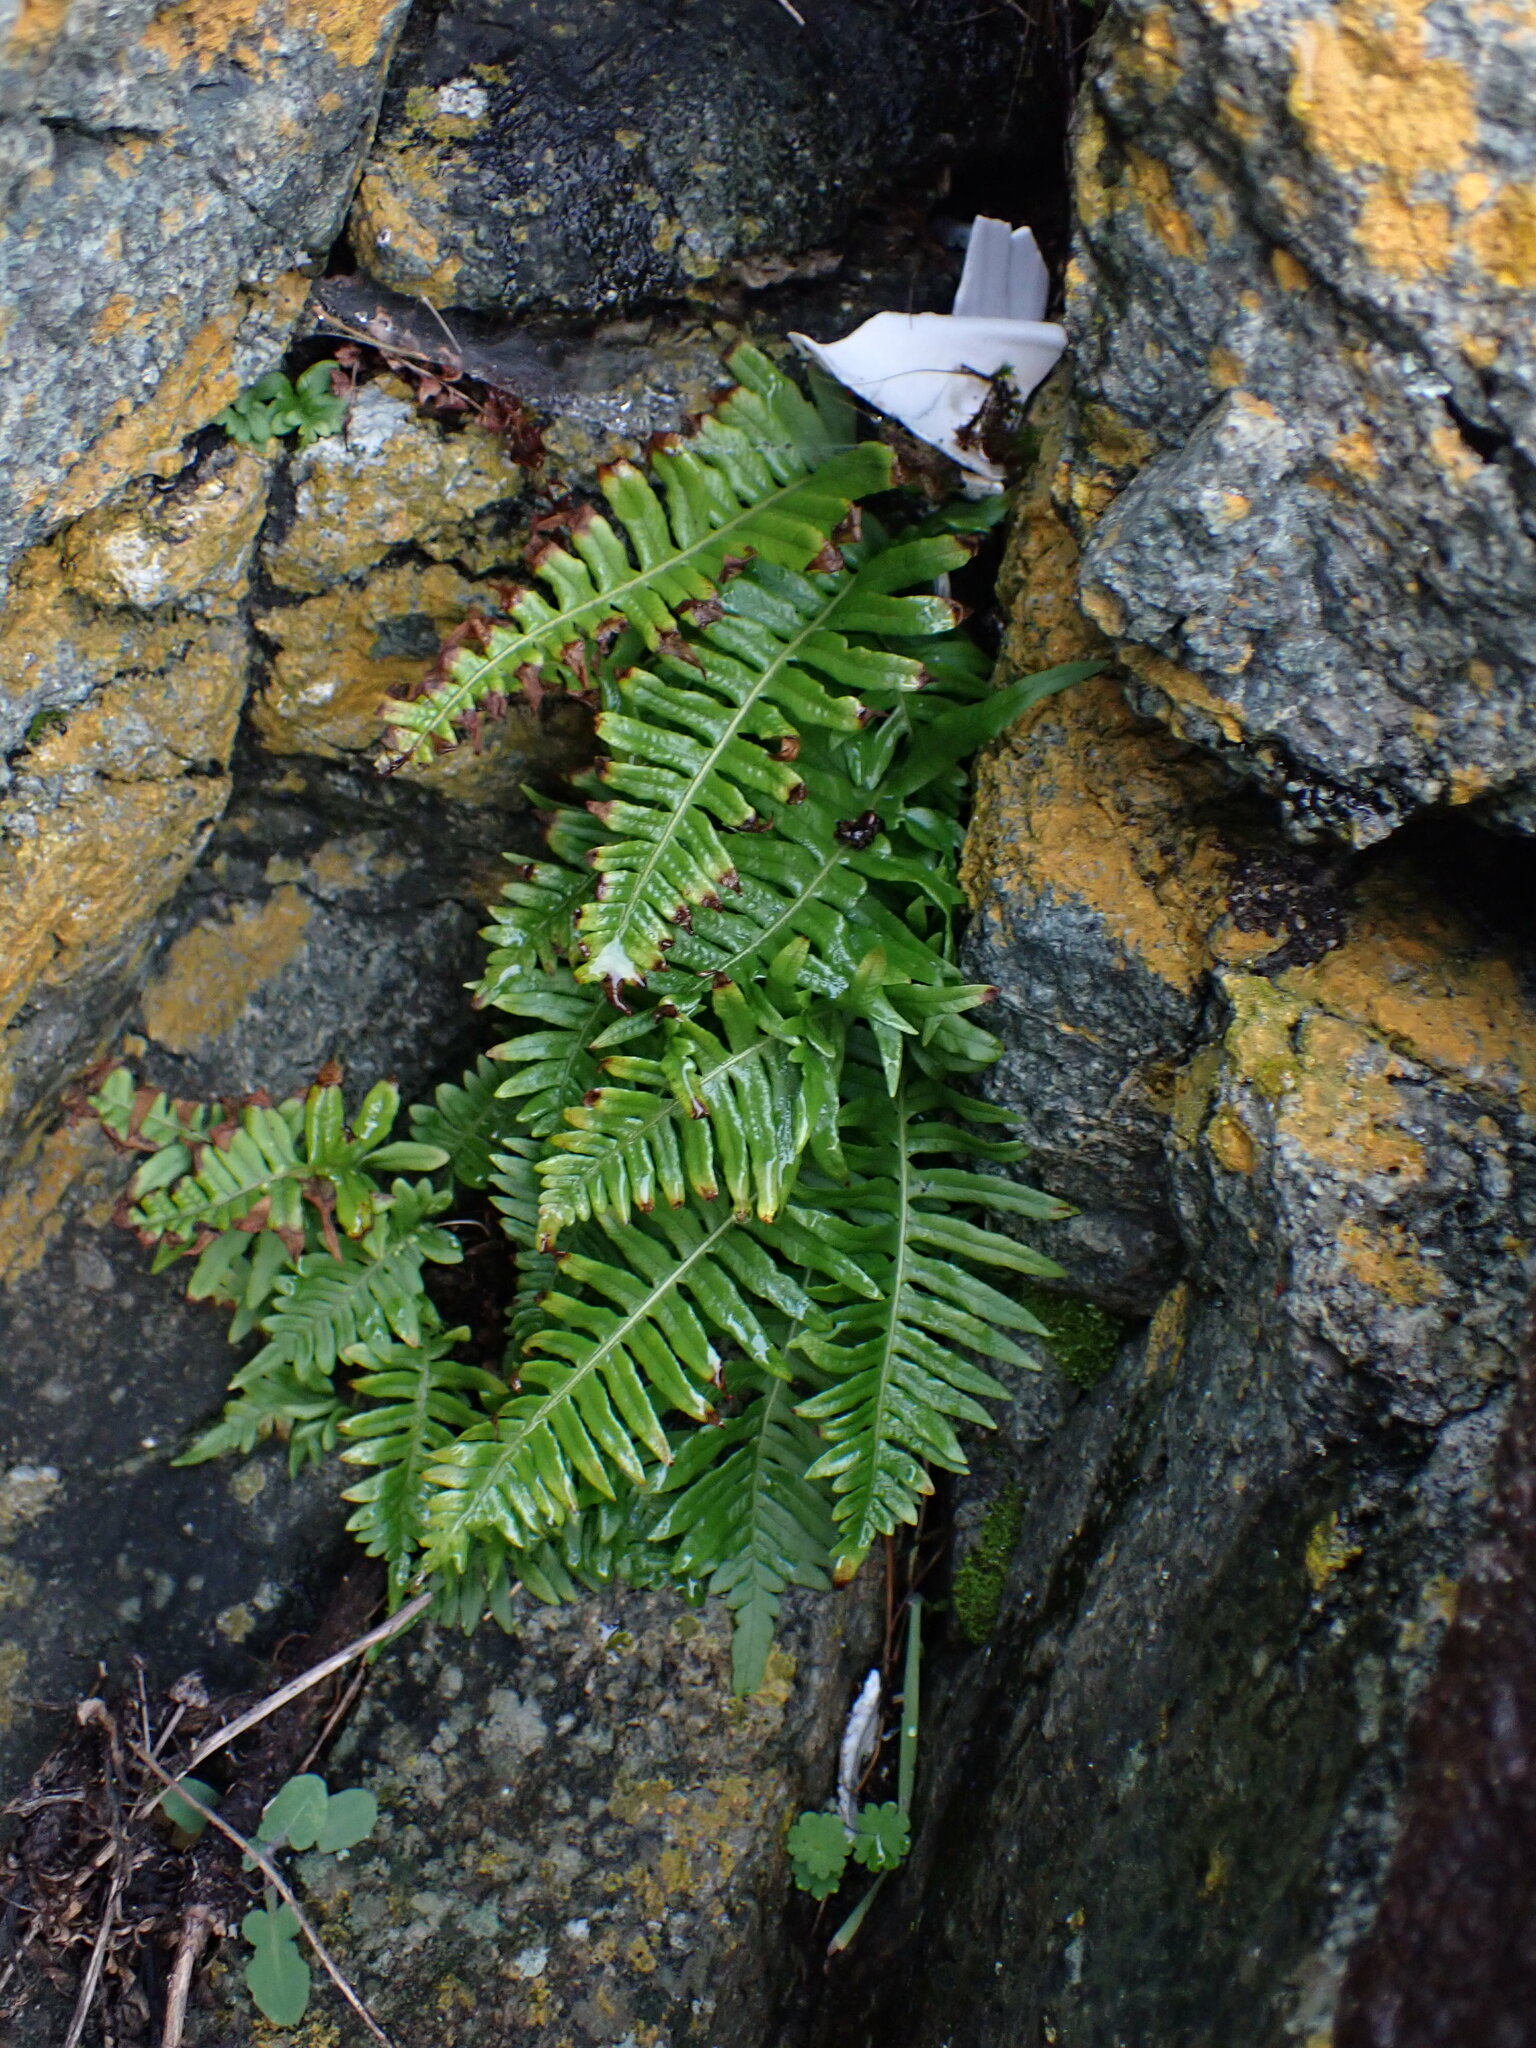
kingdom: Plantae
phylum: Tracheophyta
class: Polypodiopsida
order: Polypodiales
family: Polypodiaceae
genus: Polypodium
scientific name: Polypodium glycyrrhiza
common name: Licorice fern
